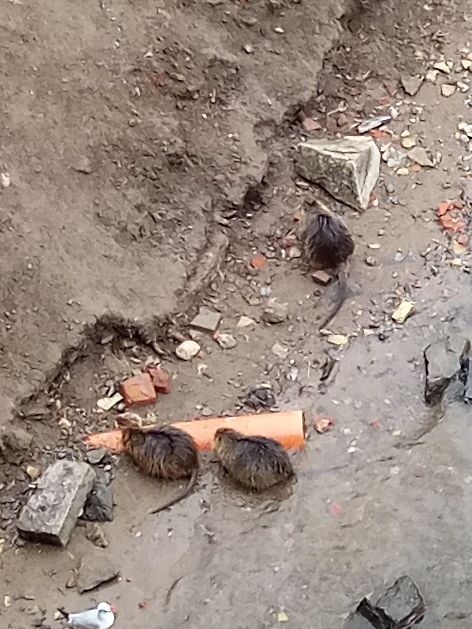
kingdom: Animalia
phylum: Chordata
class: Mammalia
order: Rodentia
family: Myocastoridae
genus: Myocastor
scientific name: Myocastor coypus
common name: Coypu
